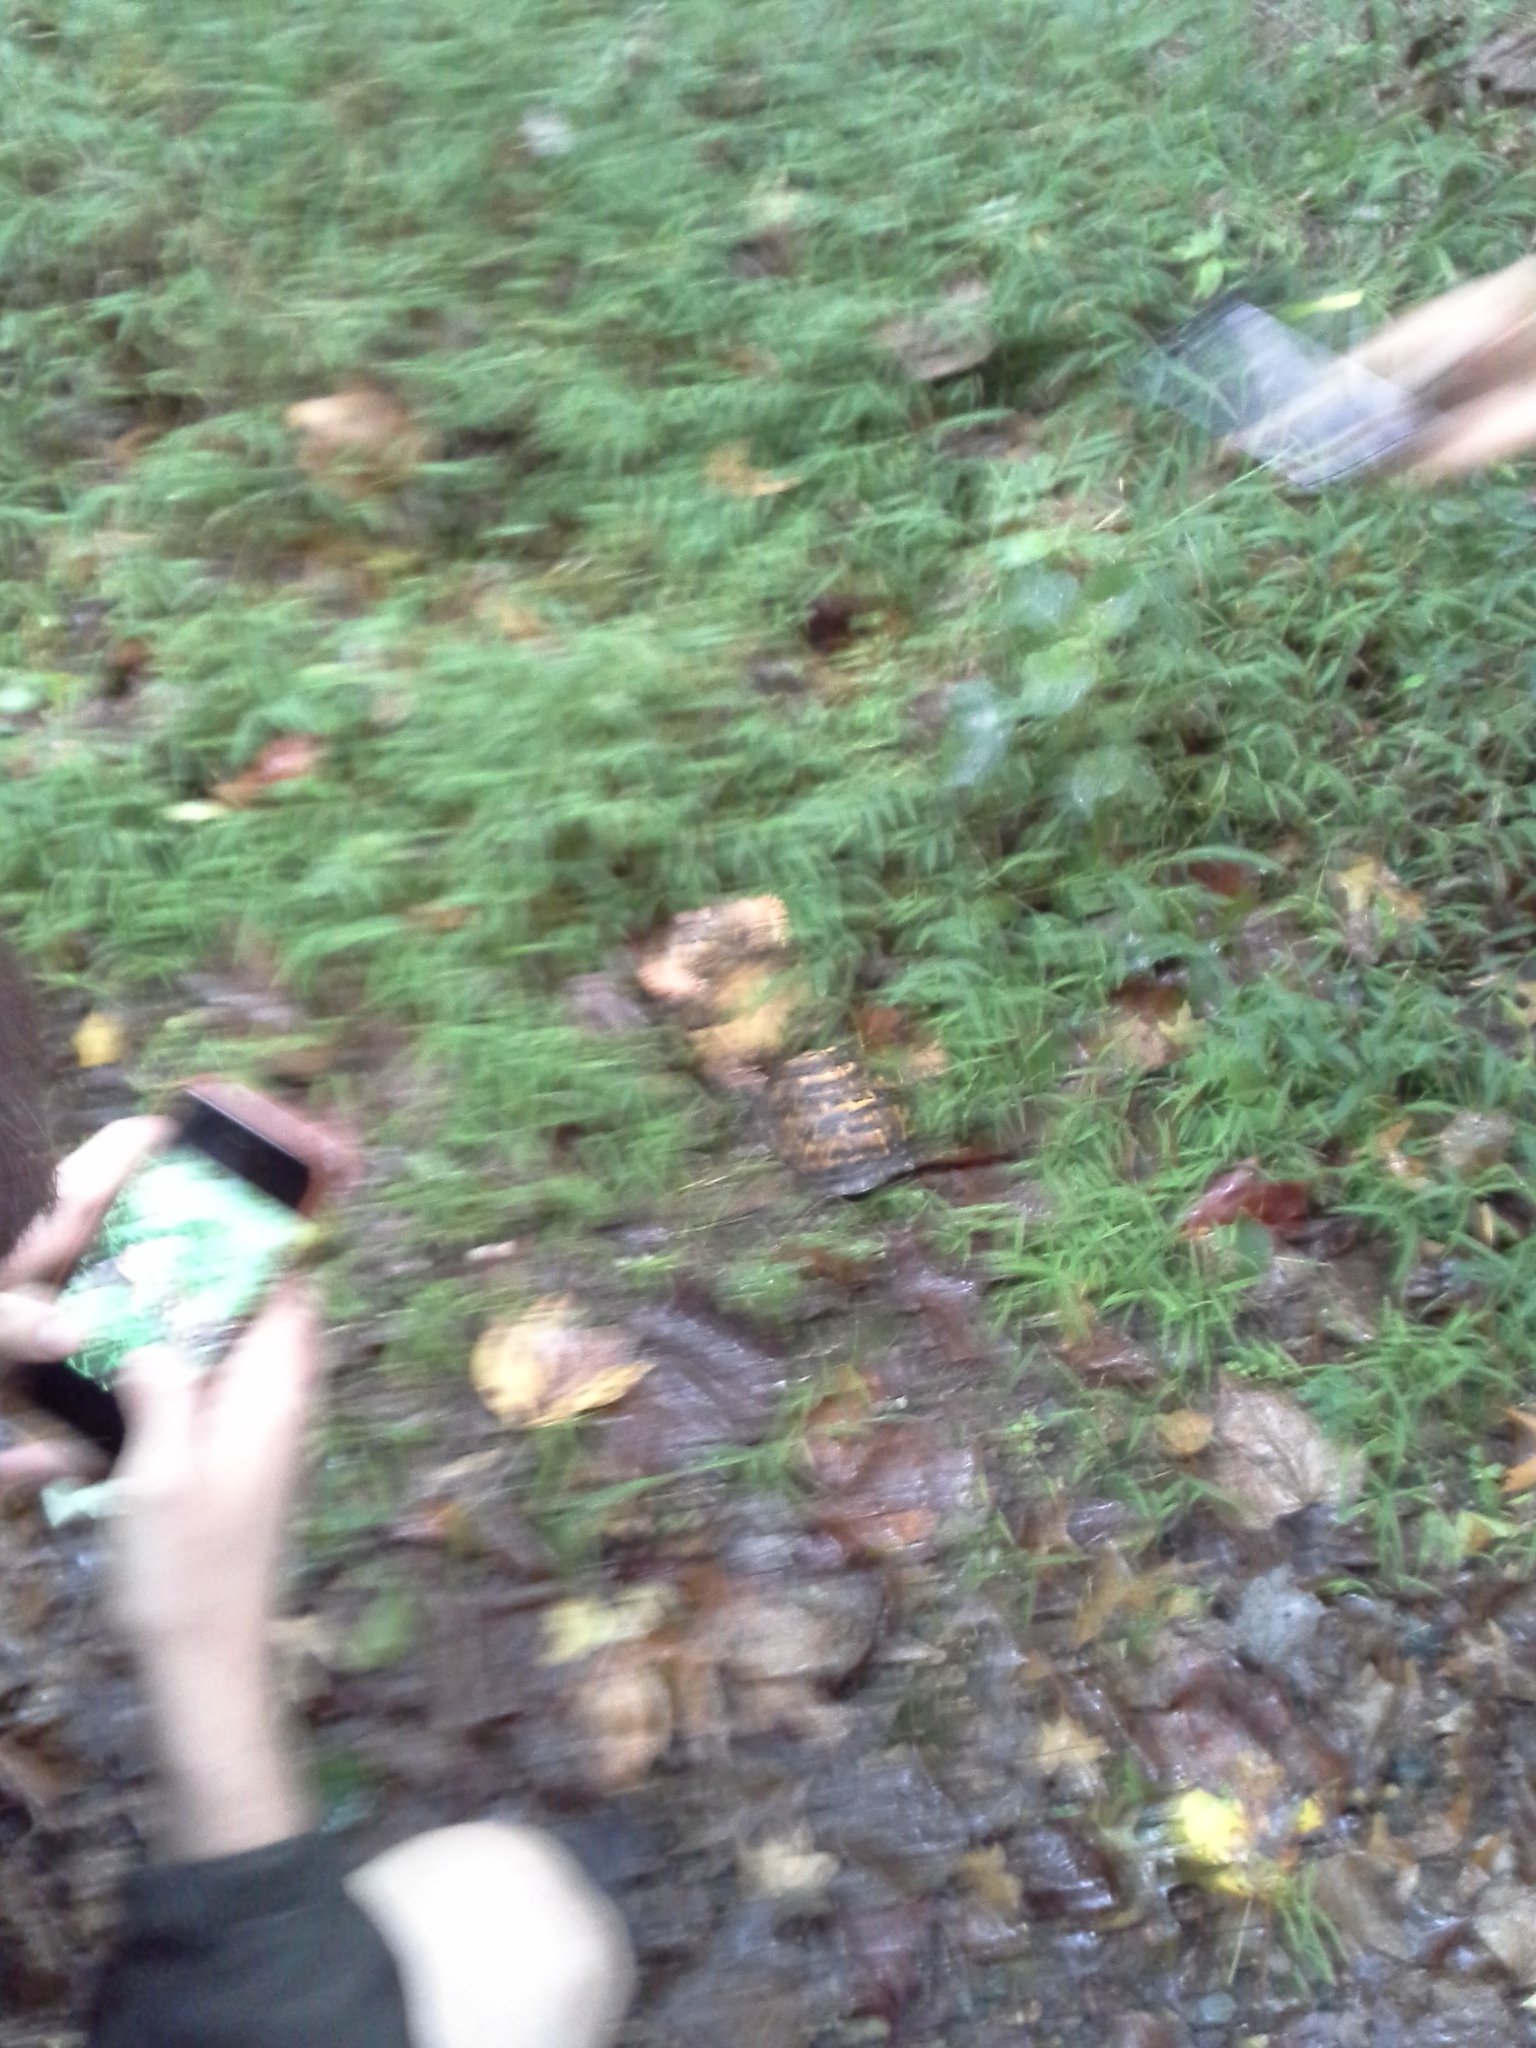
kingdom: Animalia
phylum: Chordata
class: Testudines
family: Emydidae
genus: Terrapene
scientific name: Terrapene carolina
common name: Common box turtle
